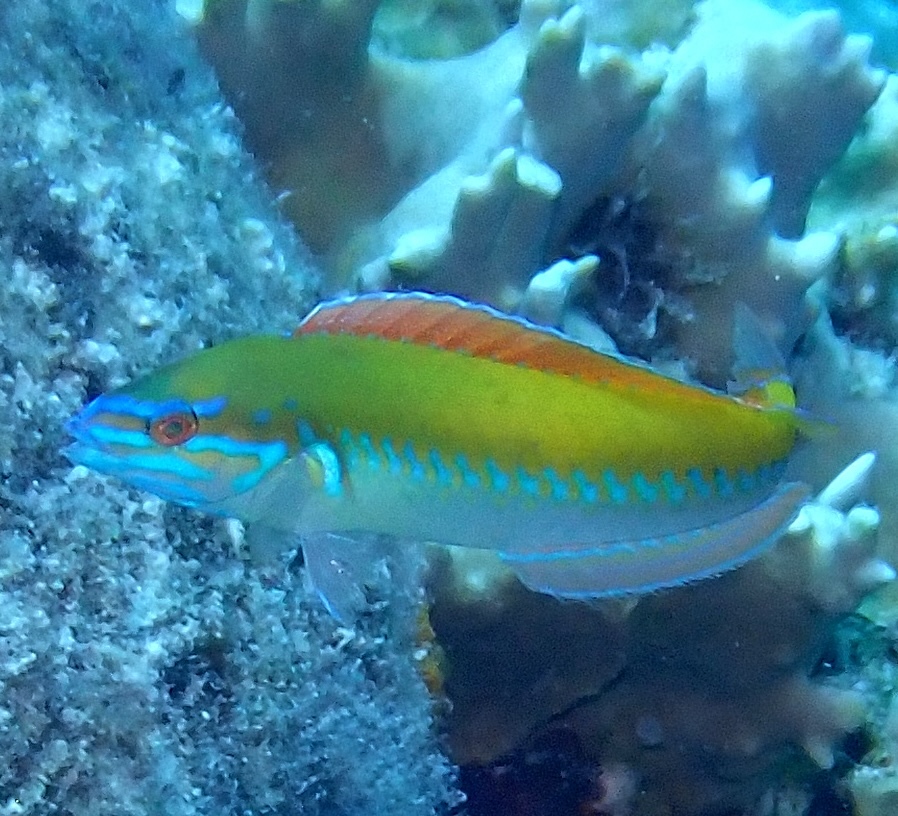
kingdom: Animalia
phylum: Chordata
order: Perciformes
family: Labridae
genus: Halichoeres
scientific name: Halichoeres pictus
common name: Rainbow wrasse
